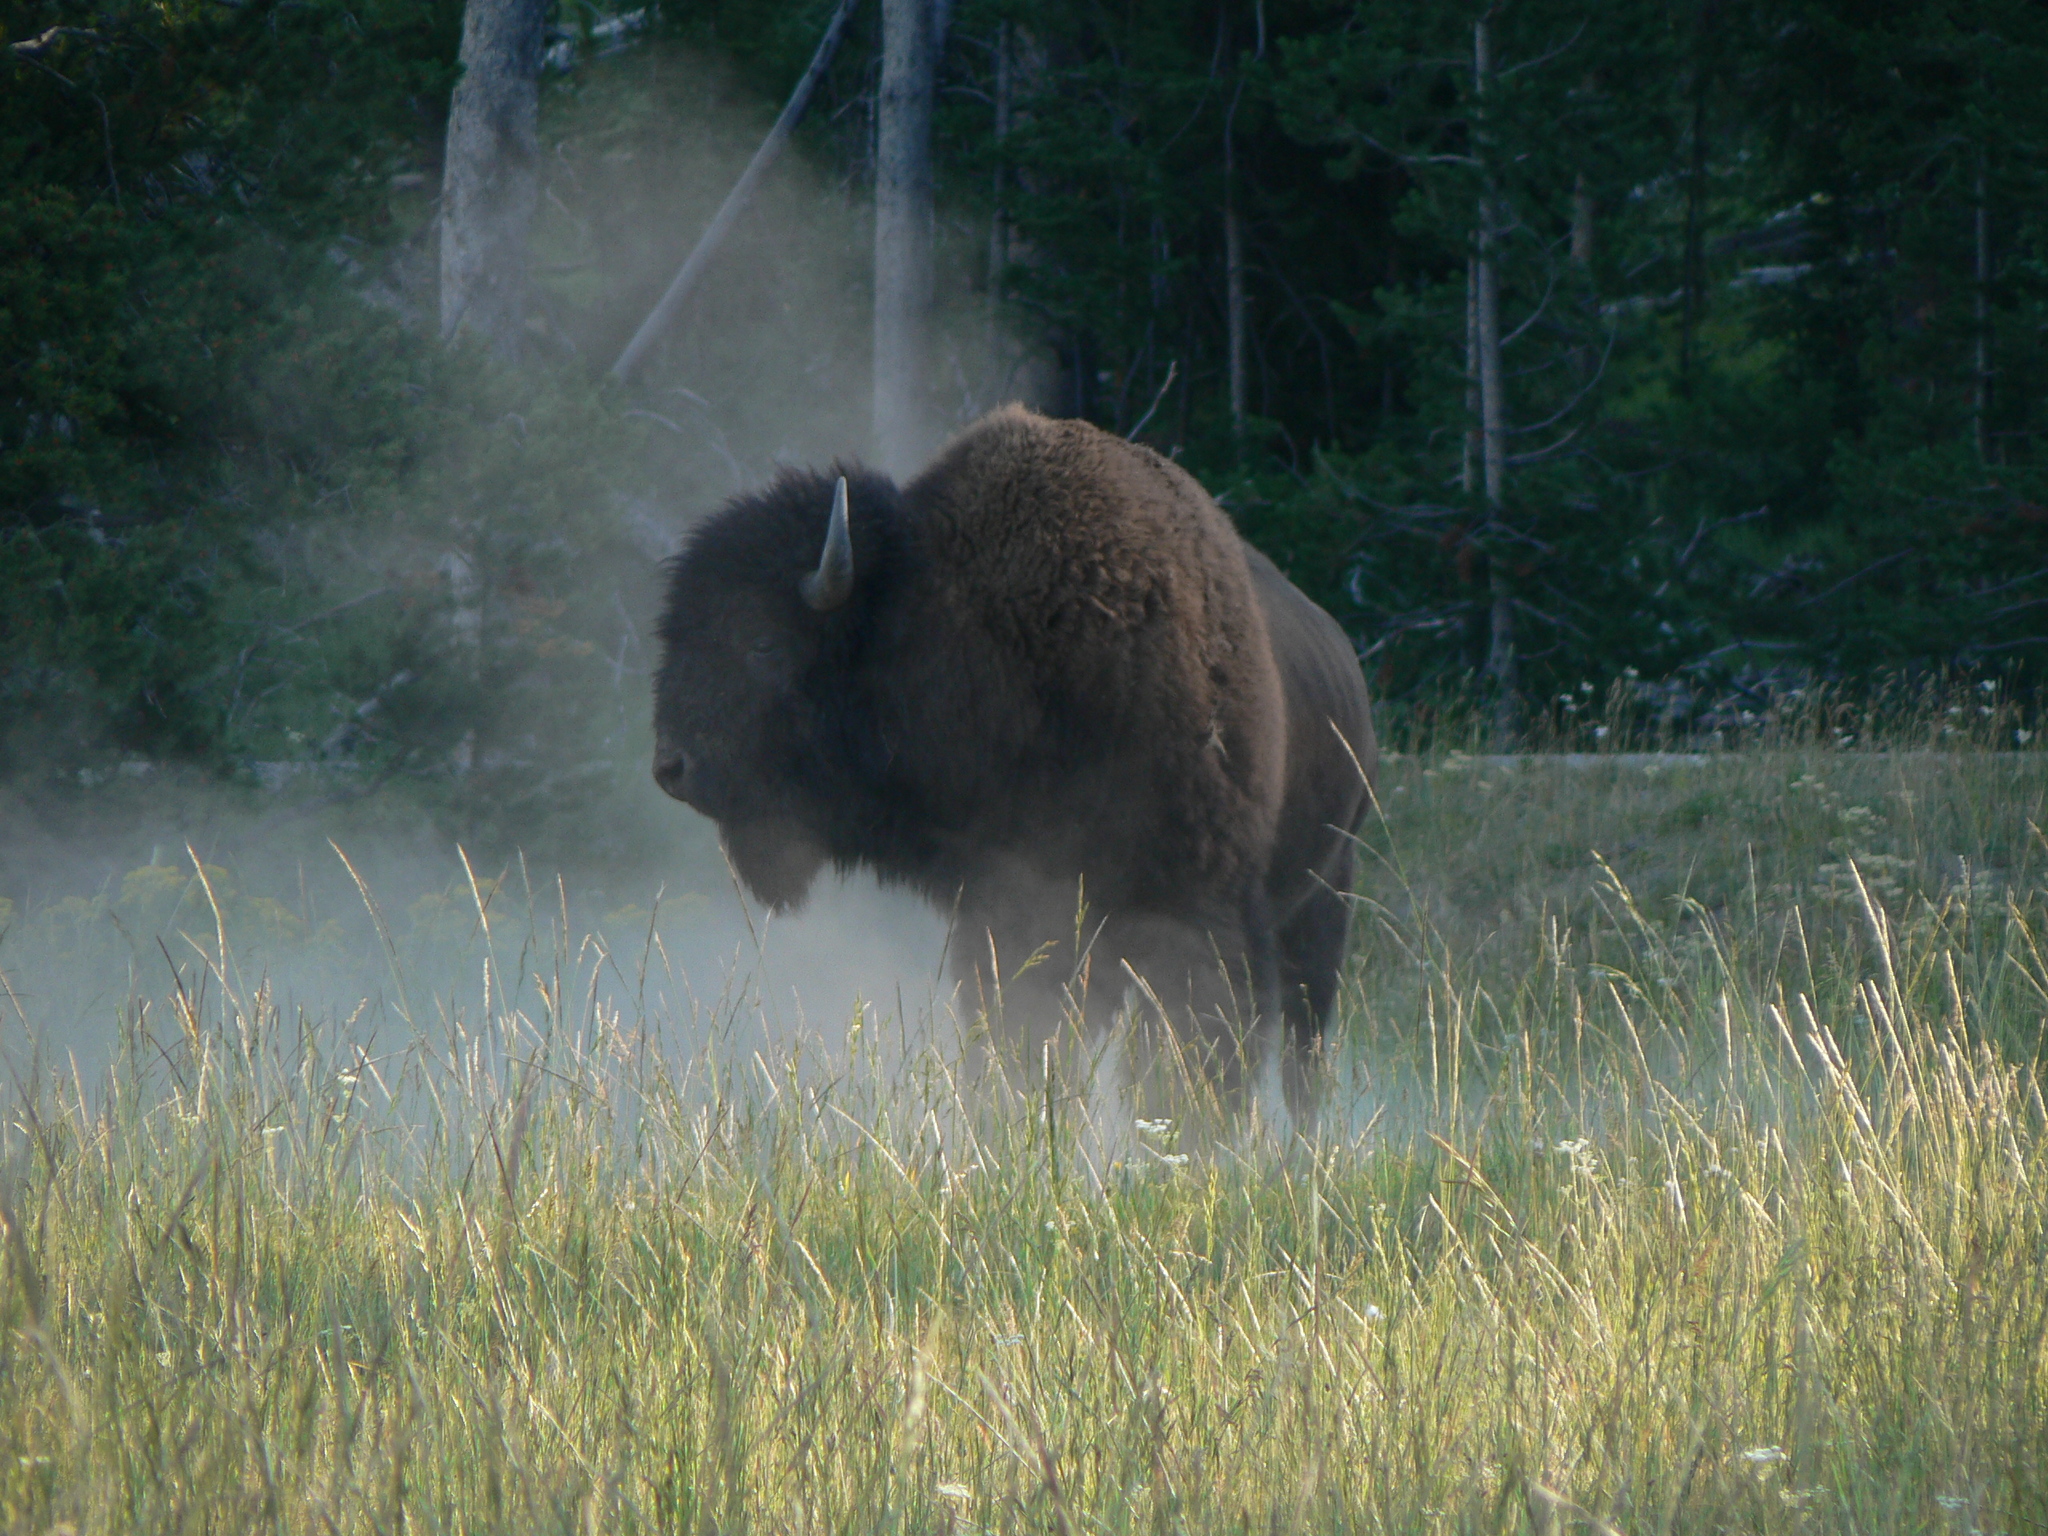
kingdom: Animalia
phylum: Chordata
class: Mammalia
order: Artiodactyla
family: Bovidae
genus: Bison
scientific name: Bison bison
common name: American bison
